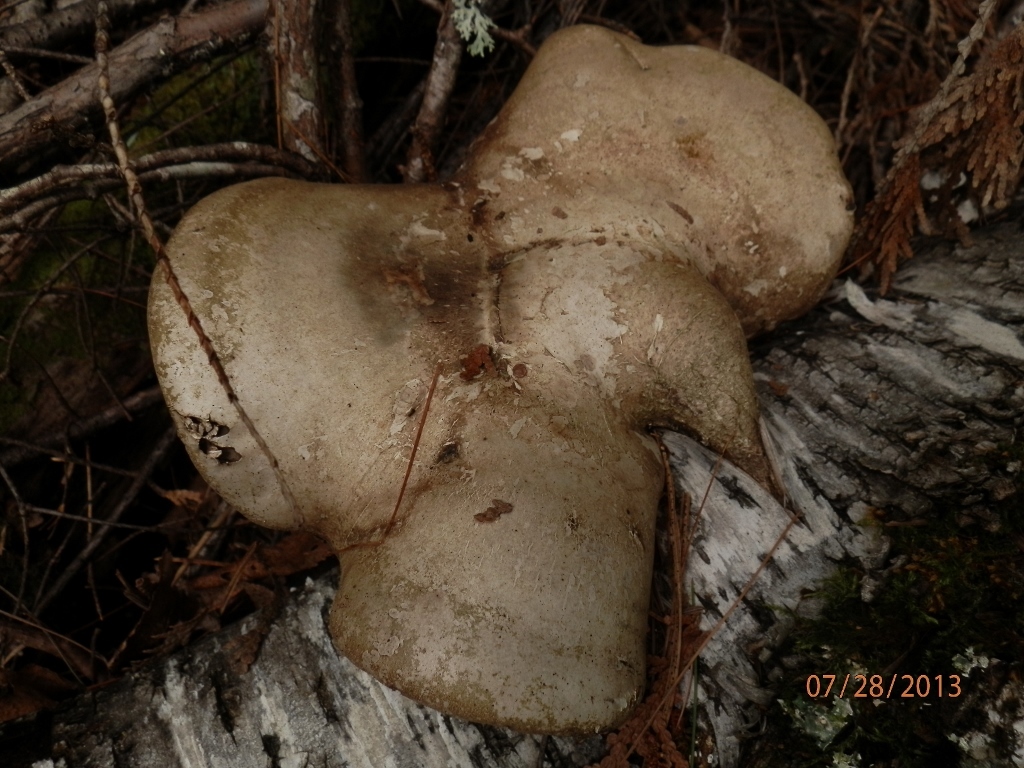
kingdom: Fungi
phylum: Basidiomycota
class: Agaricomycetes
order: Polyporales
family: Fomitopsidaceae
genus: Fomitopsis
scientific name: Fomitopsis betulina
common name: Birch polypore
